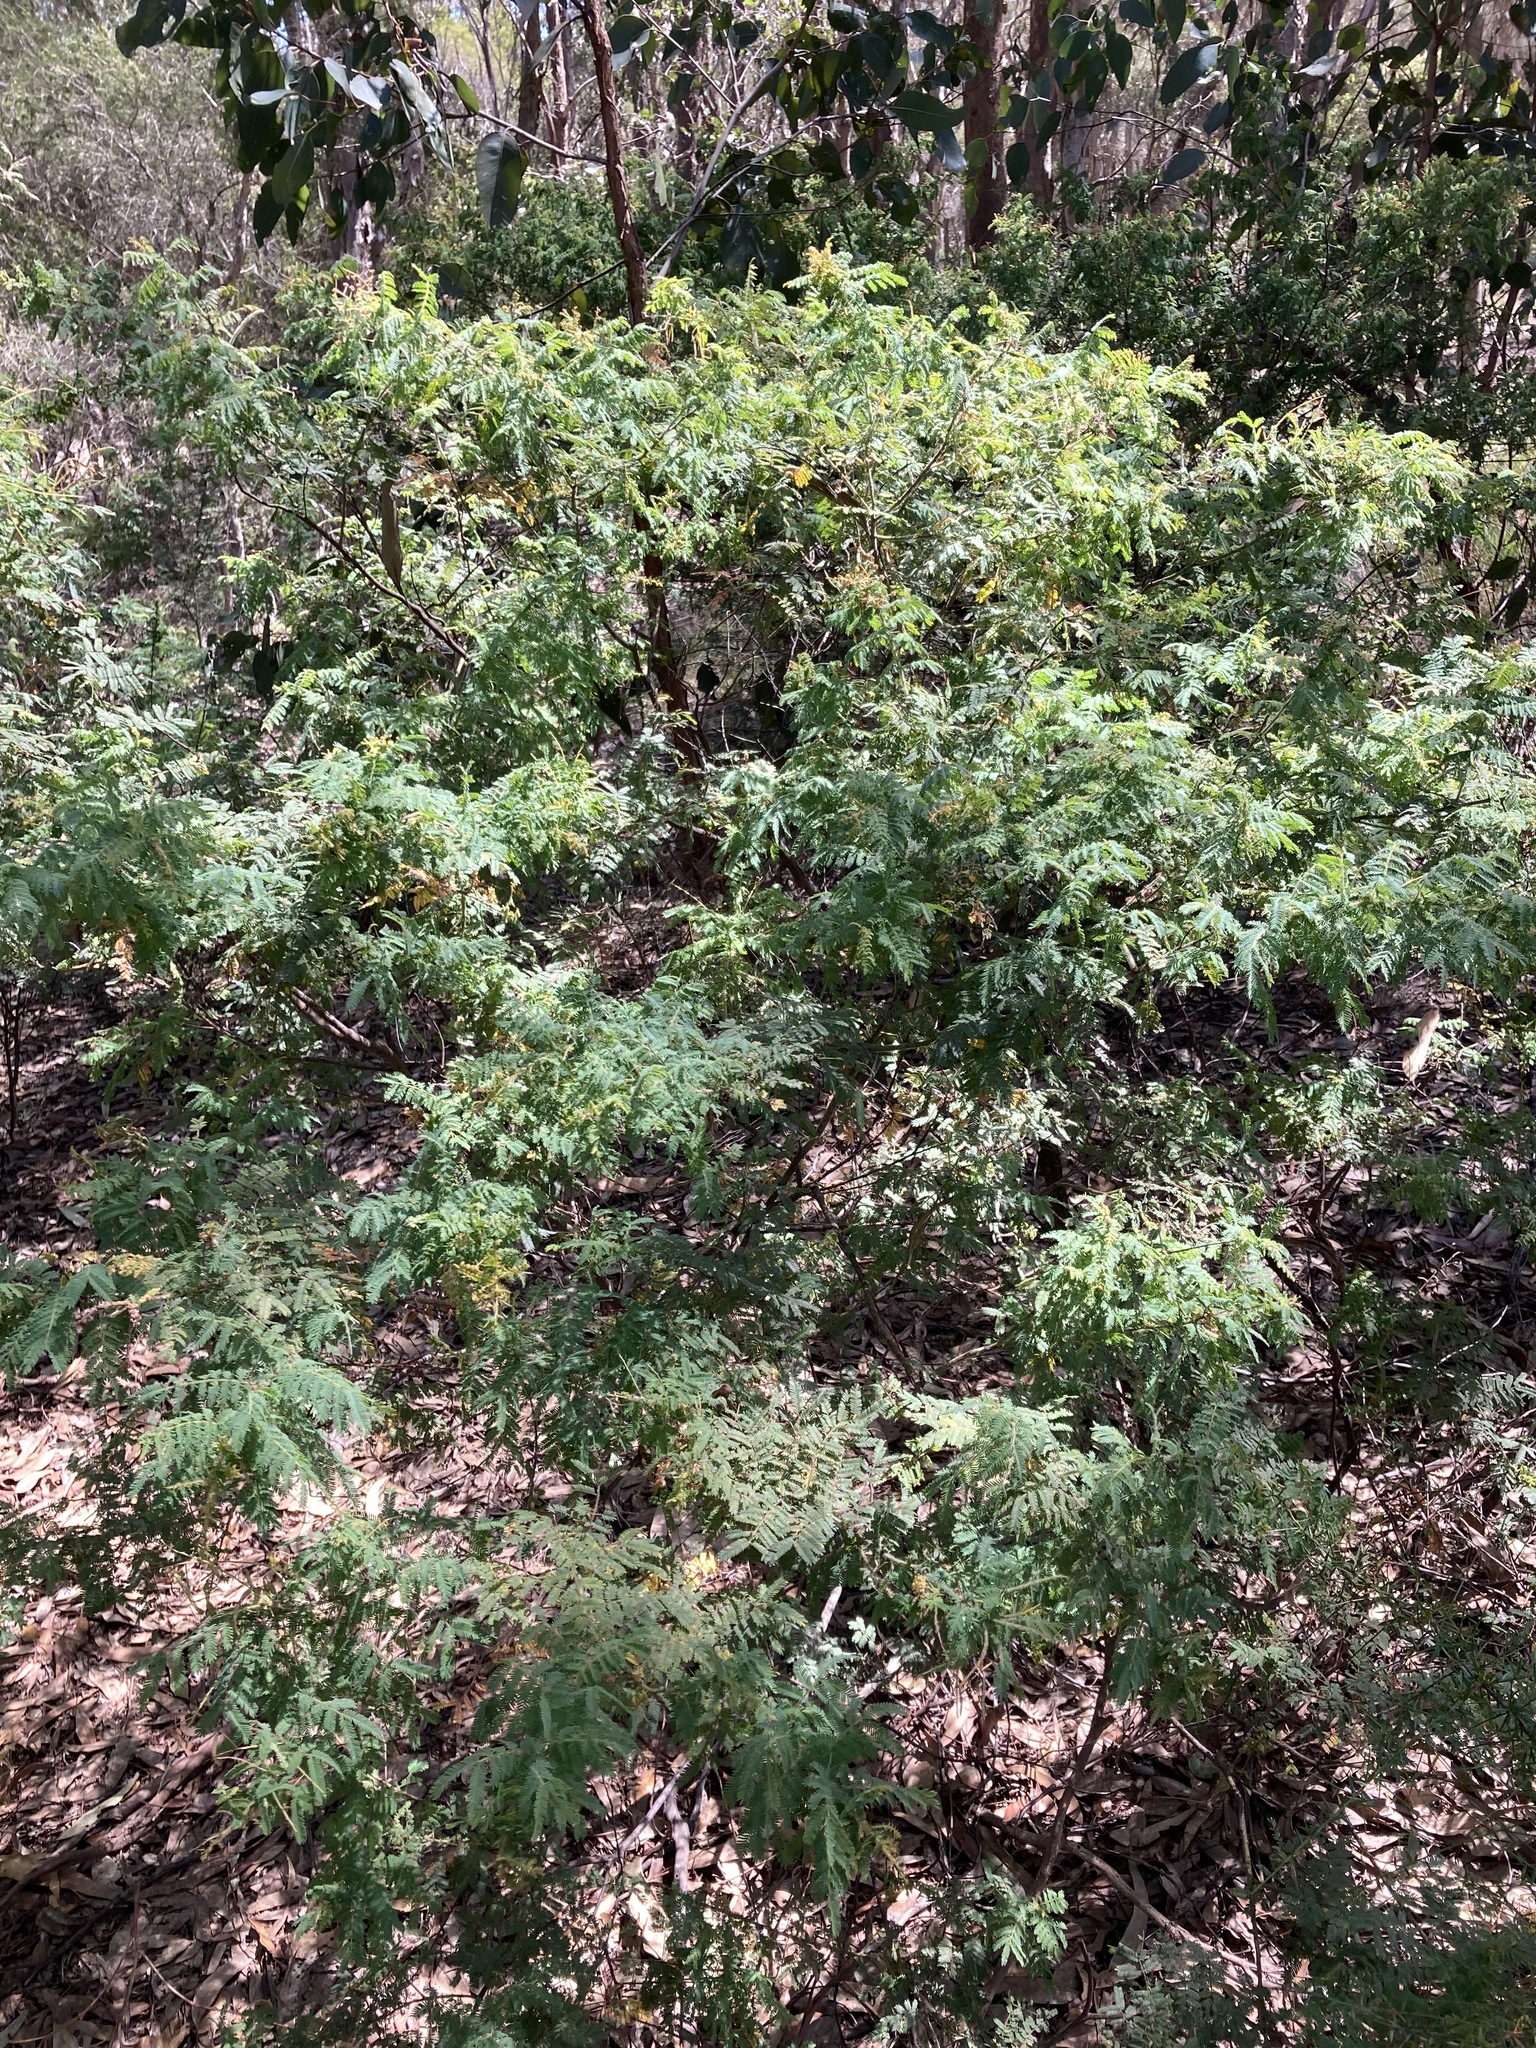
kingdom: Plantae
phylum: Tracheophyta
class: Magnoliopsida
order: Fabales
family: Fabaceae
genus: Acacia
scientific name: Acacia pubescens
